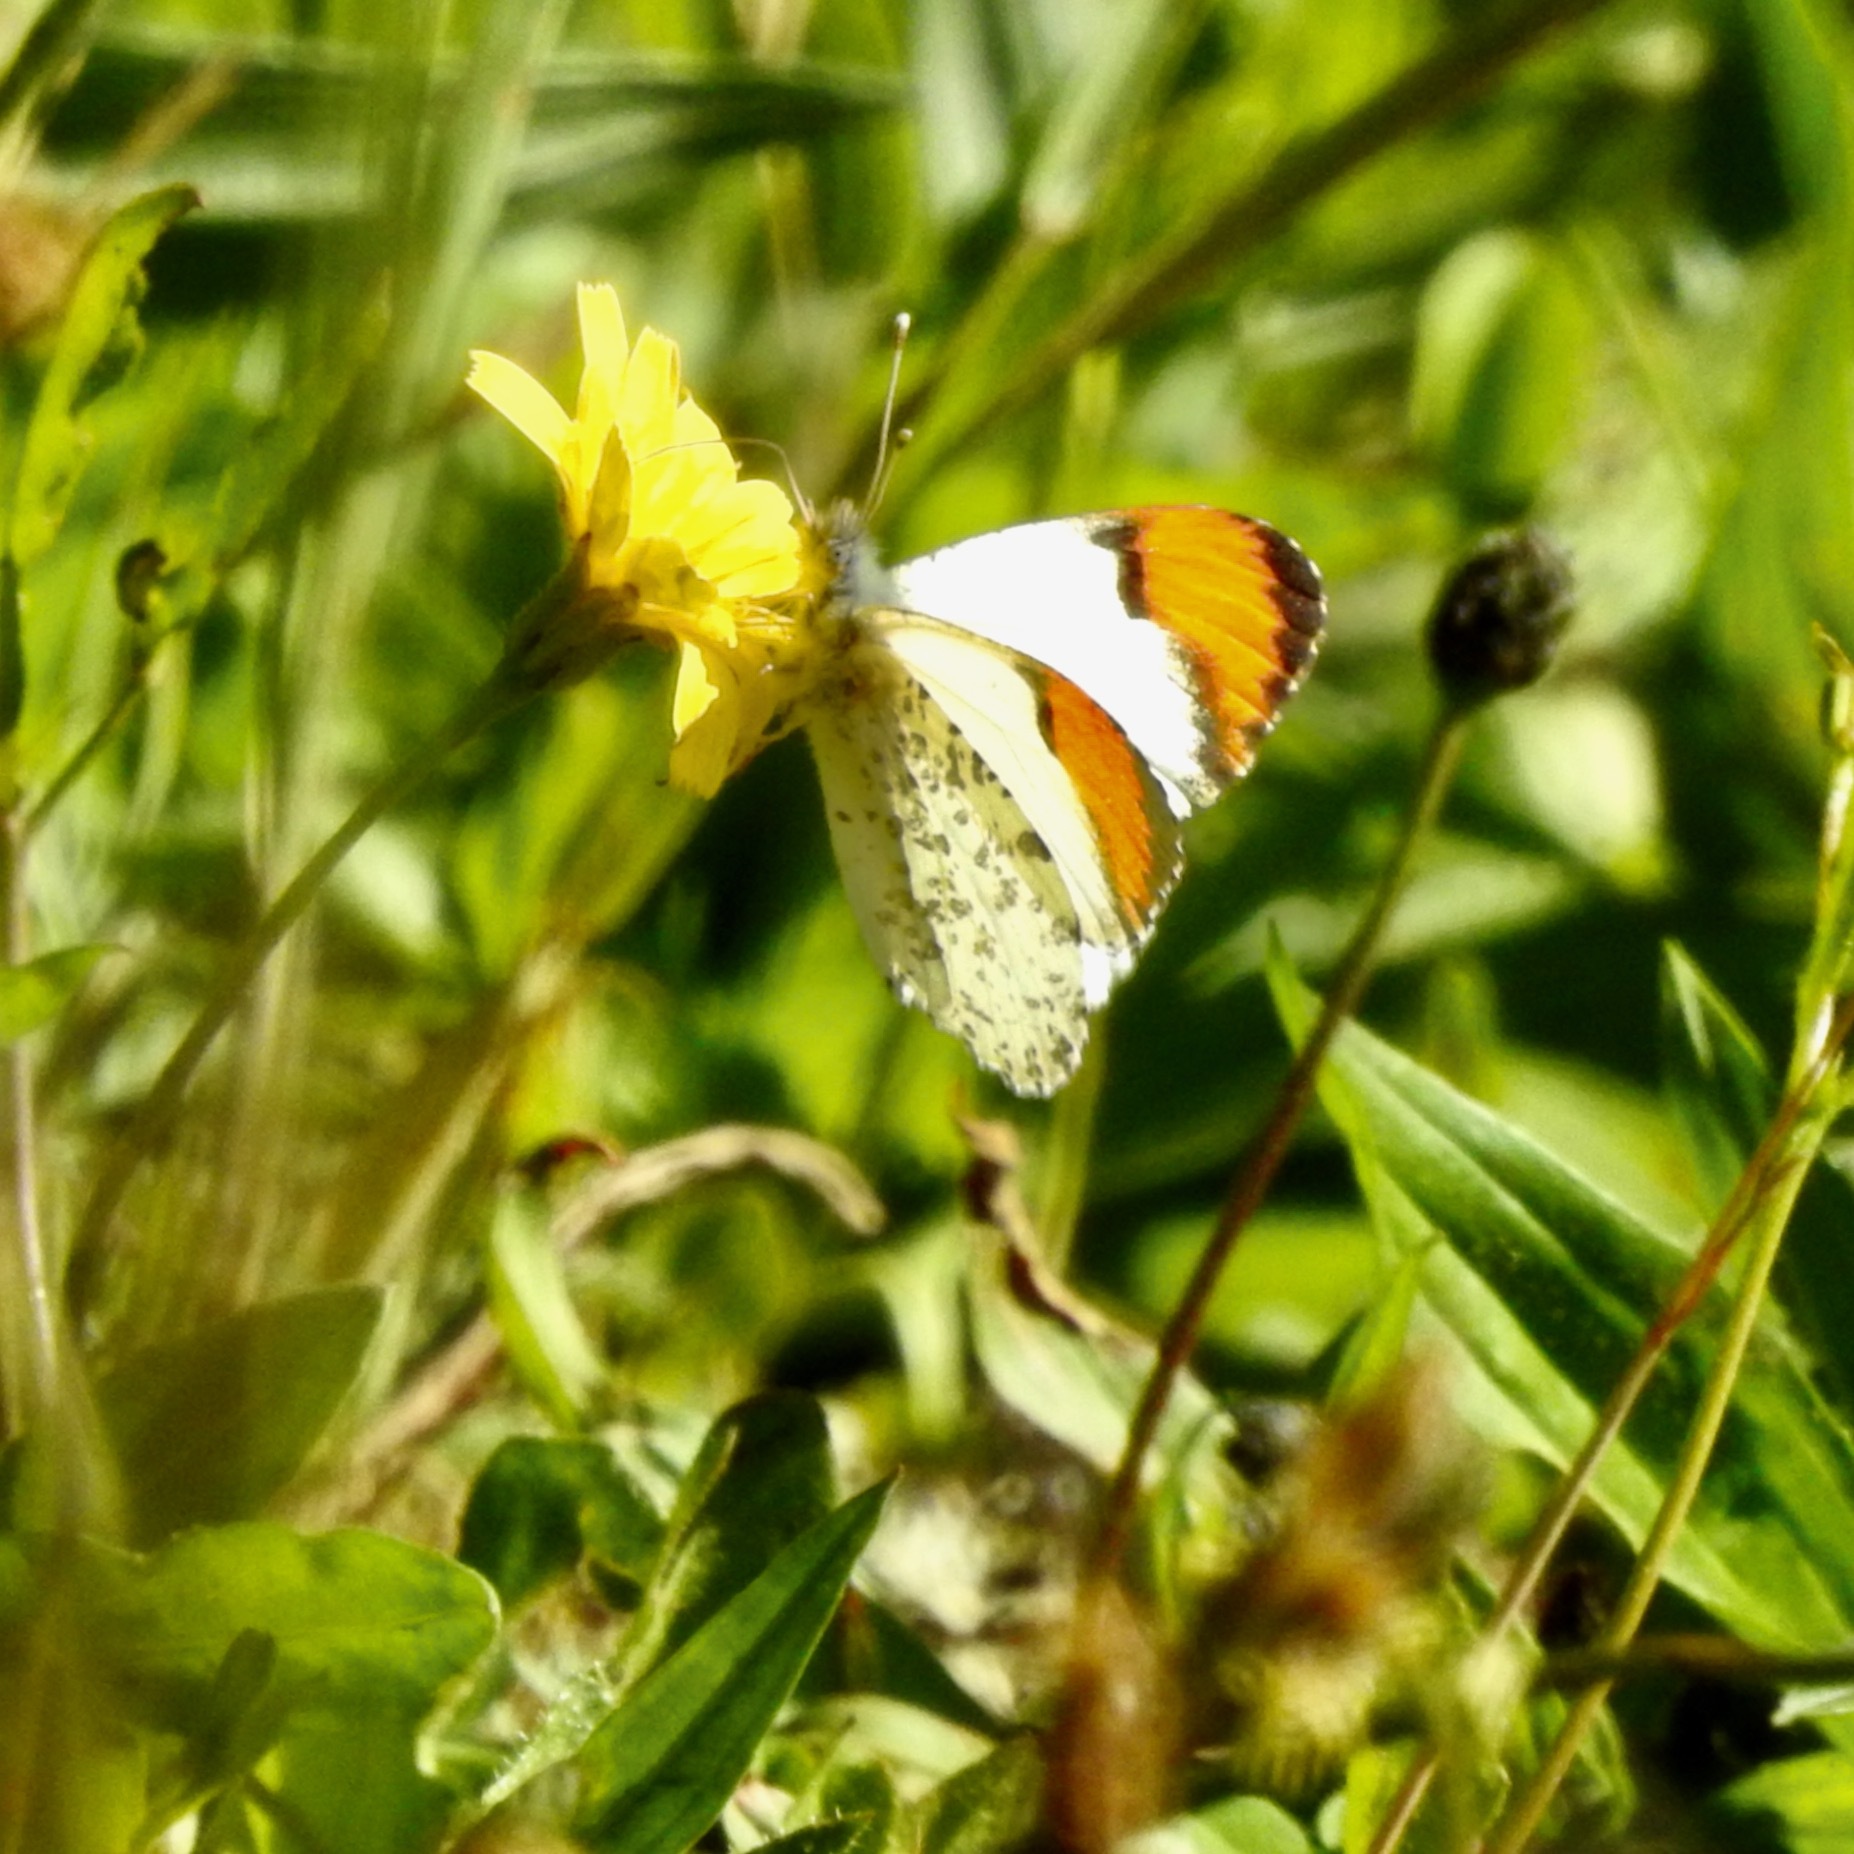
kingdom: Animalia
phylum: Arthropoda
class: Insecta
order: Lepidoptera
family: Pieridae
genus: Anthocharis
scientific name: Anthocharis sara
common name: Sara's orangetip
